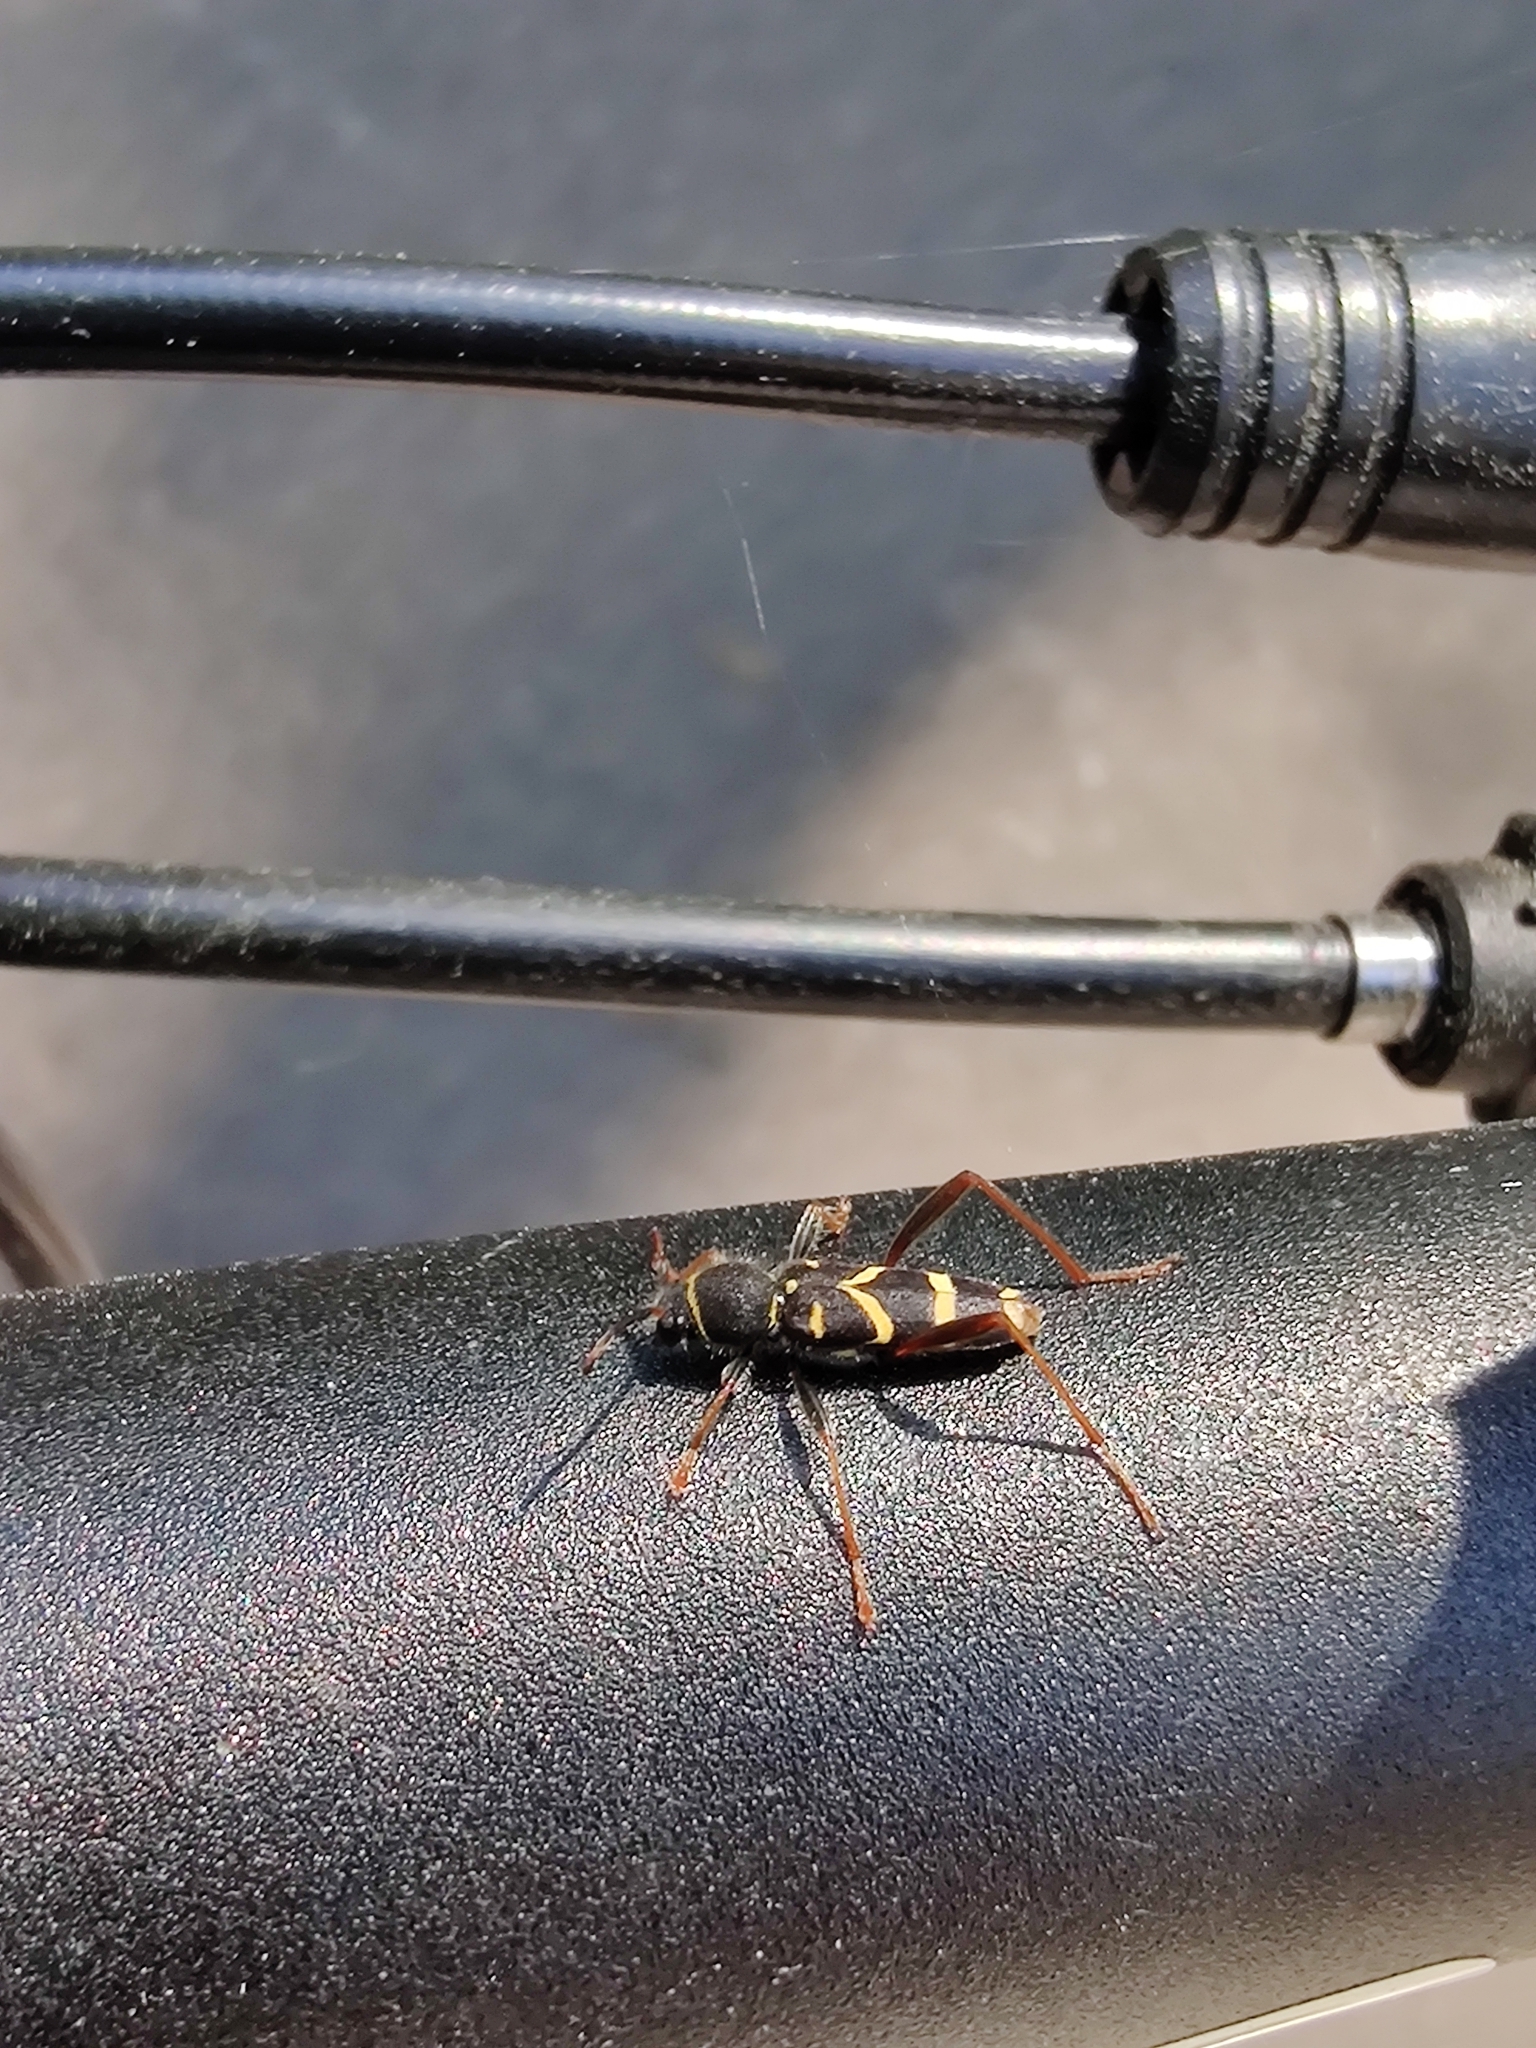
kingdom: Animalia
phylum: Arthropoda
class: Insecta
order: Coleoptera
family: Cerambycidae
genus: Clytus
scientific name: Clytus arietis
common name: Wasp beetle
